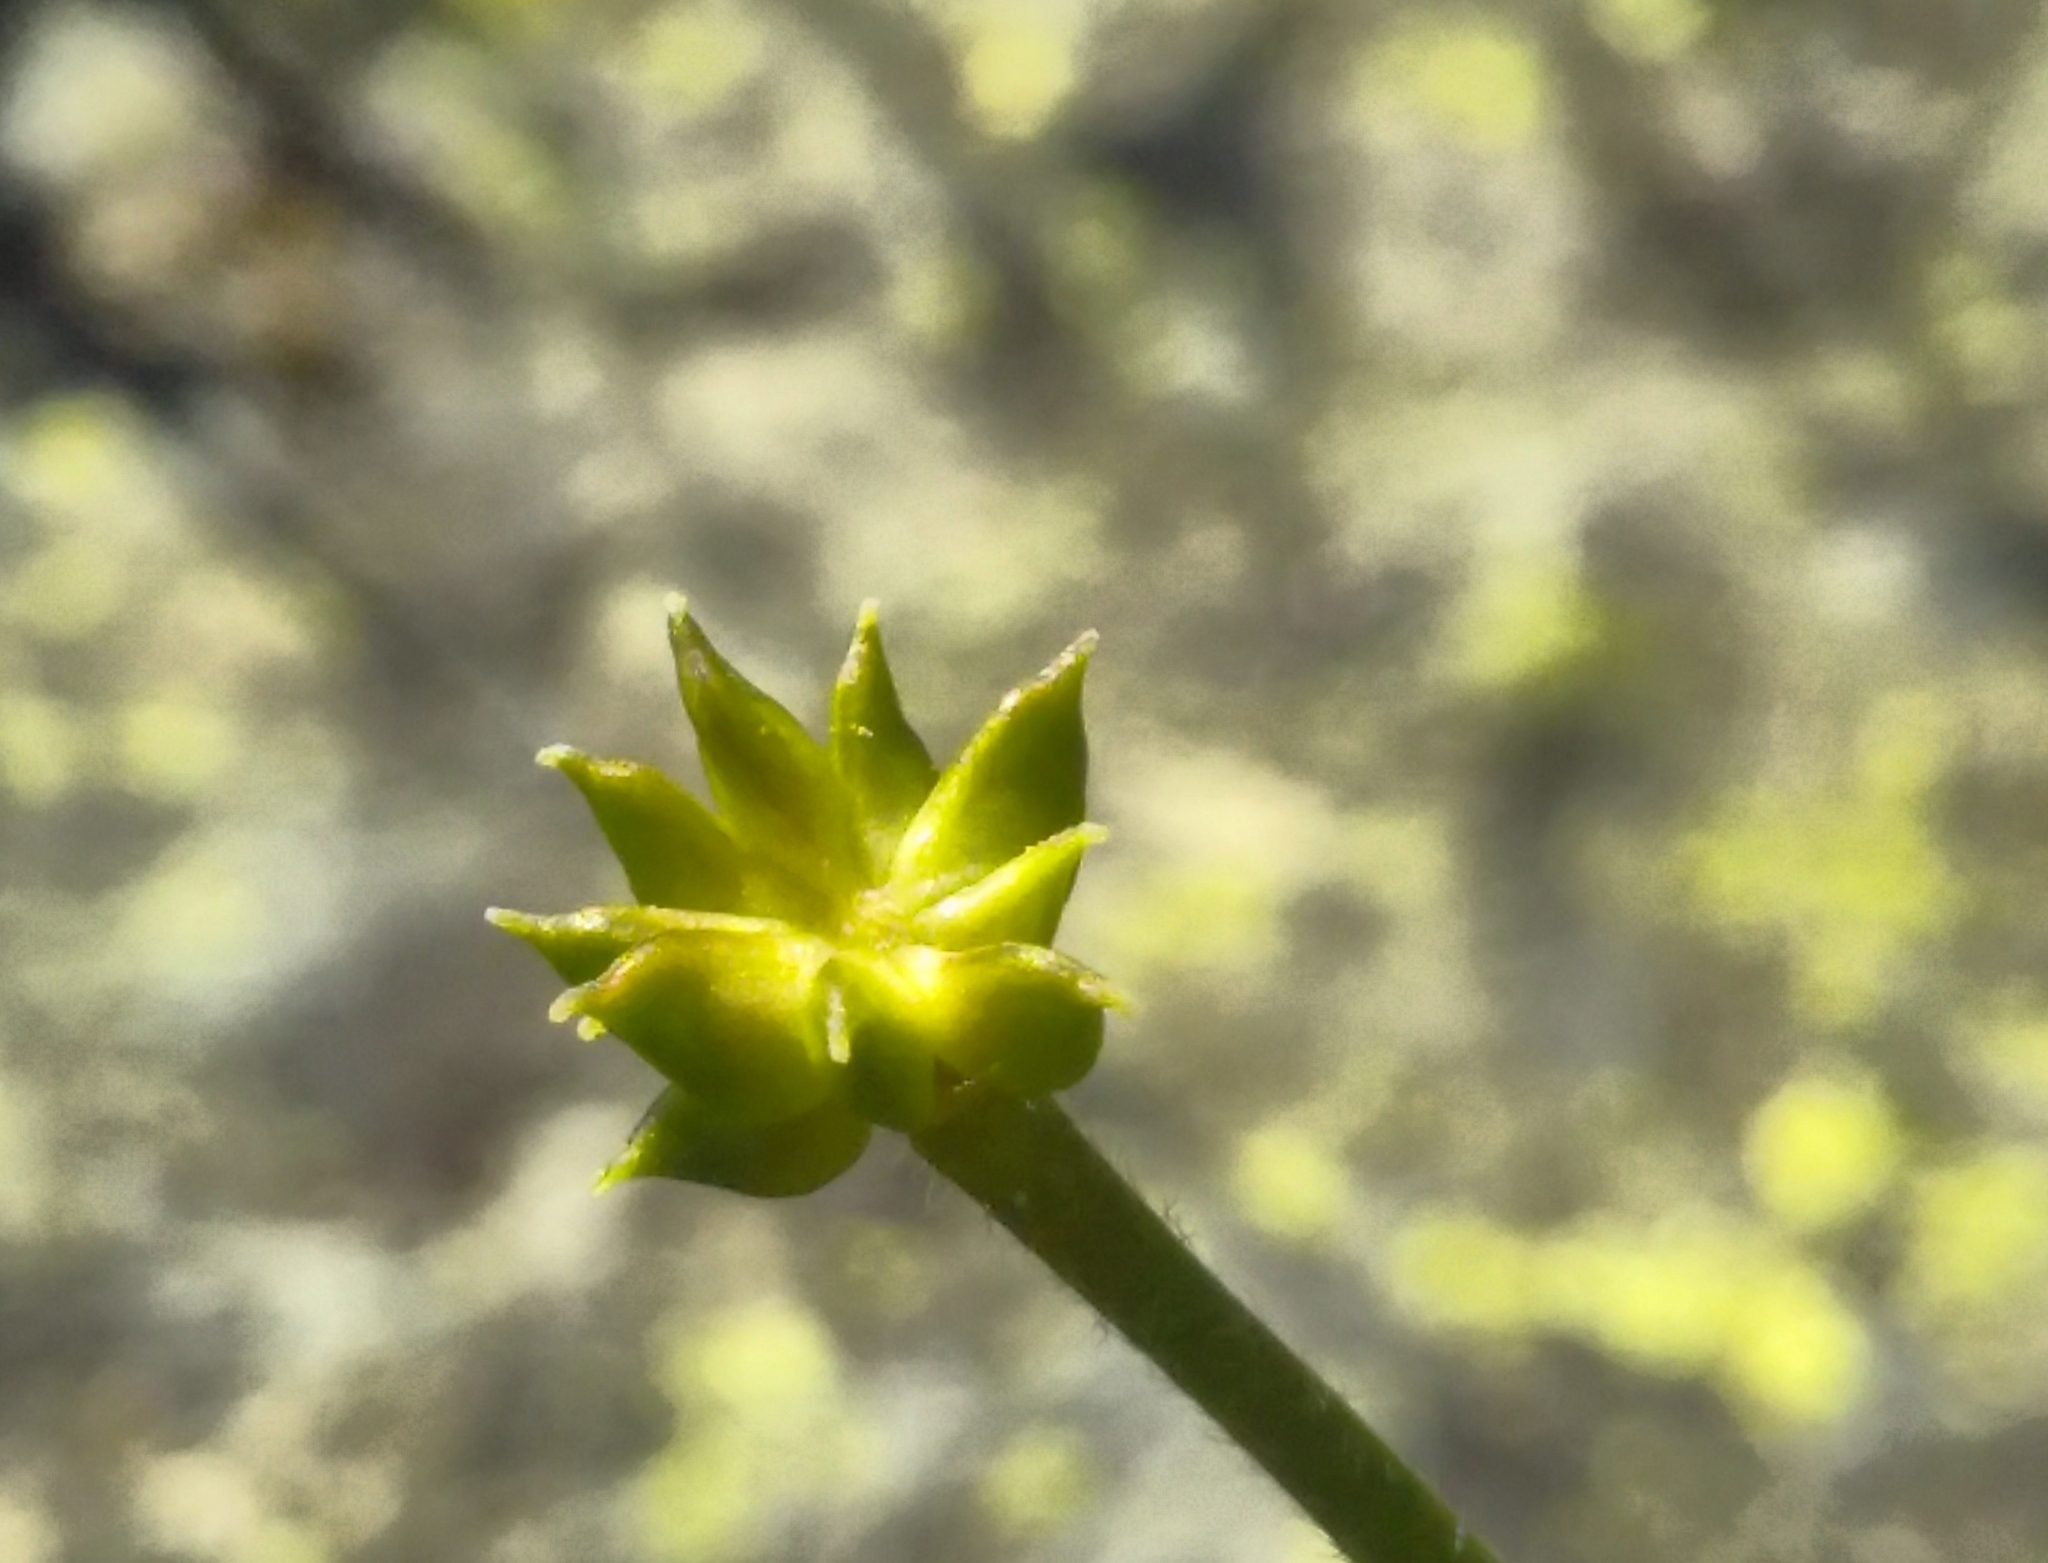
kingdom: Plantae
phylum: Tracheophyta
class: Magnoliopsida
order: Ranunculales
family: Ranunculaceae
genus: Ranunculus
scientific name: Ranunculus aconitifolius
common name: Aconite-leaved buttercup
